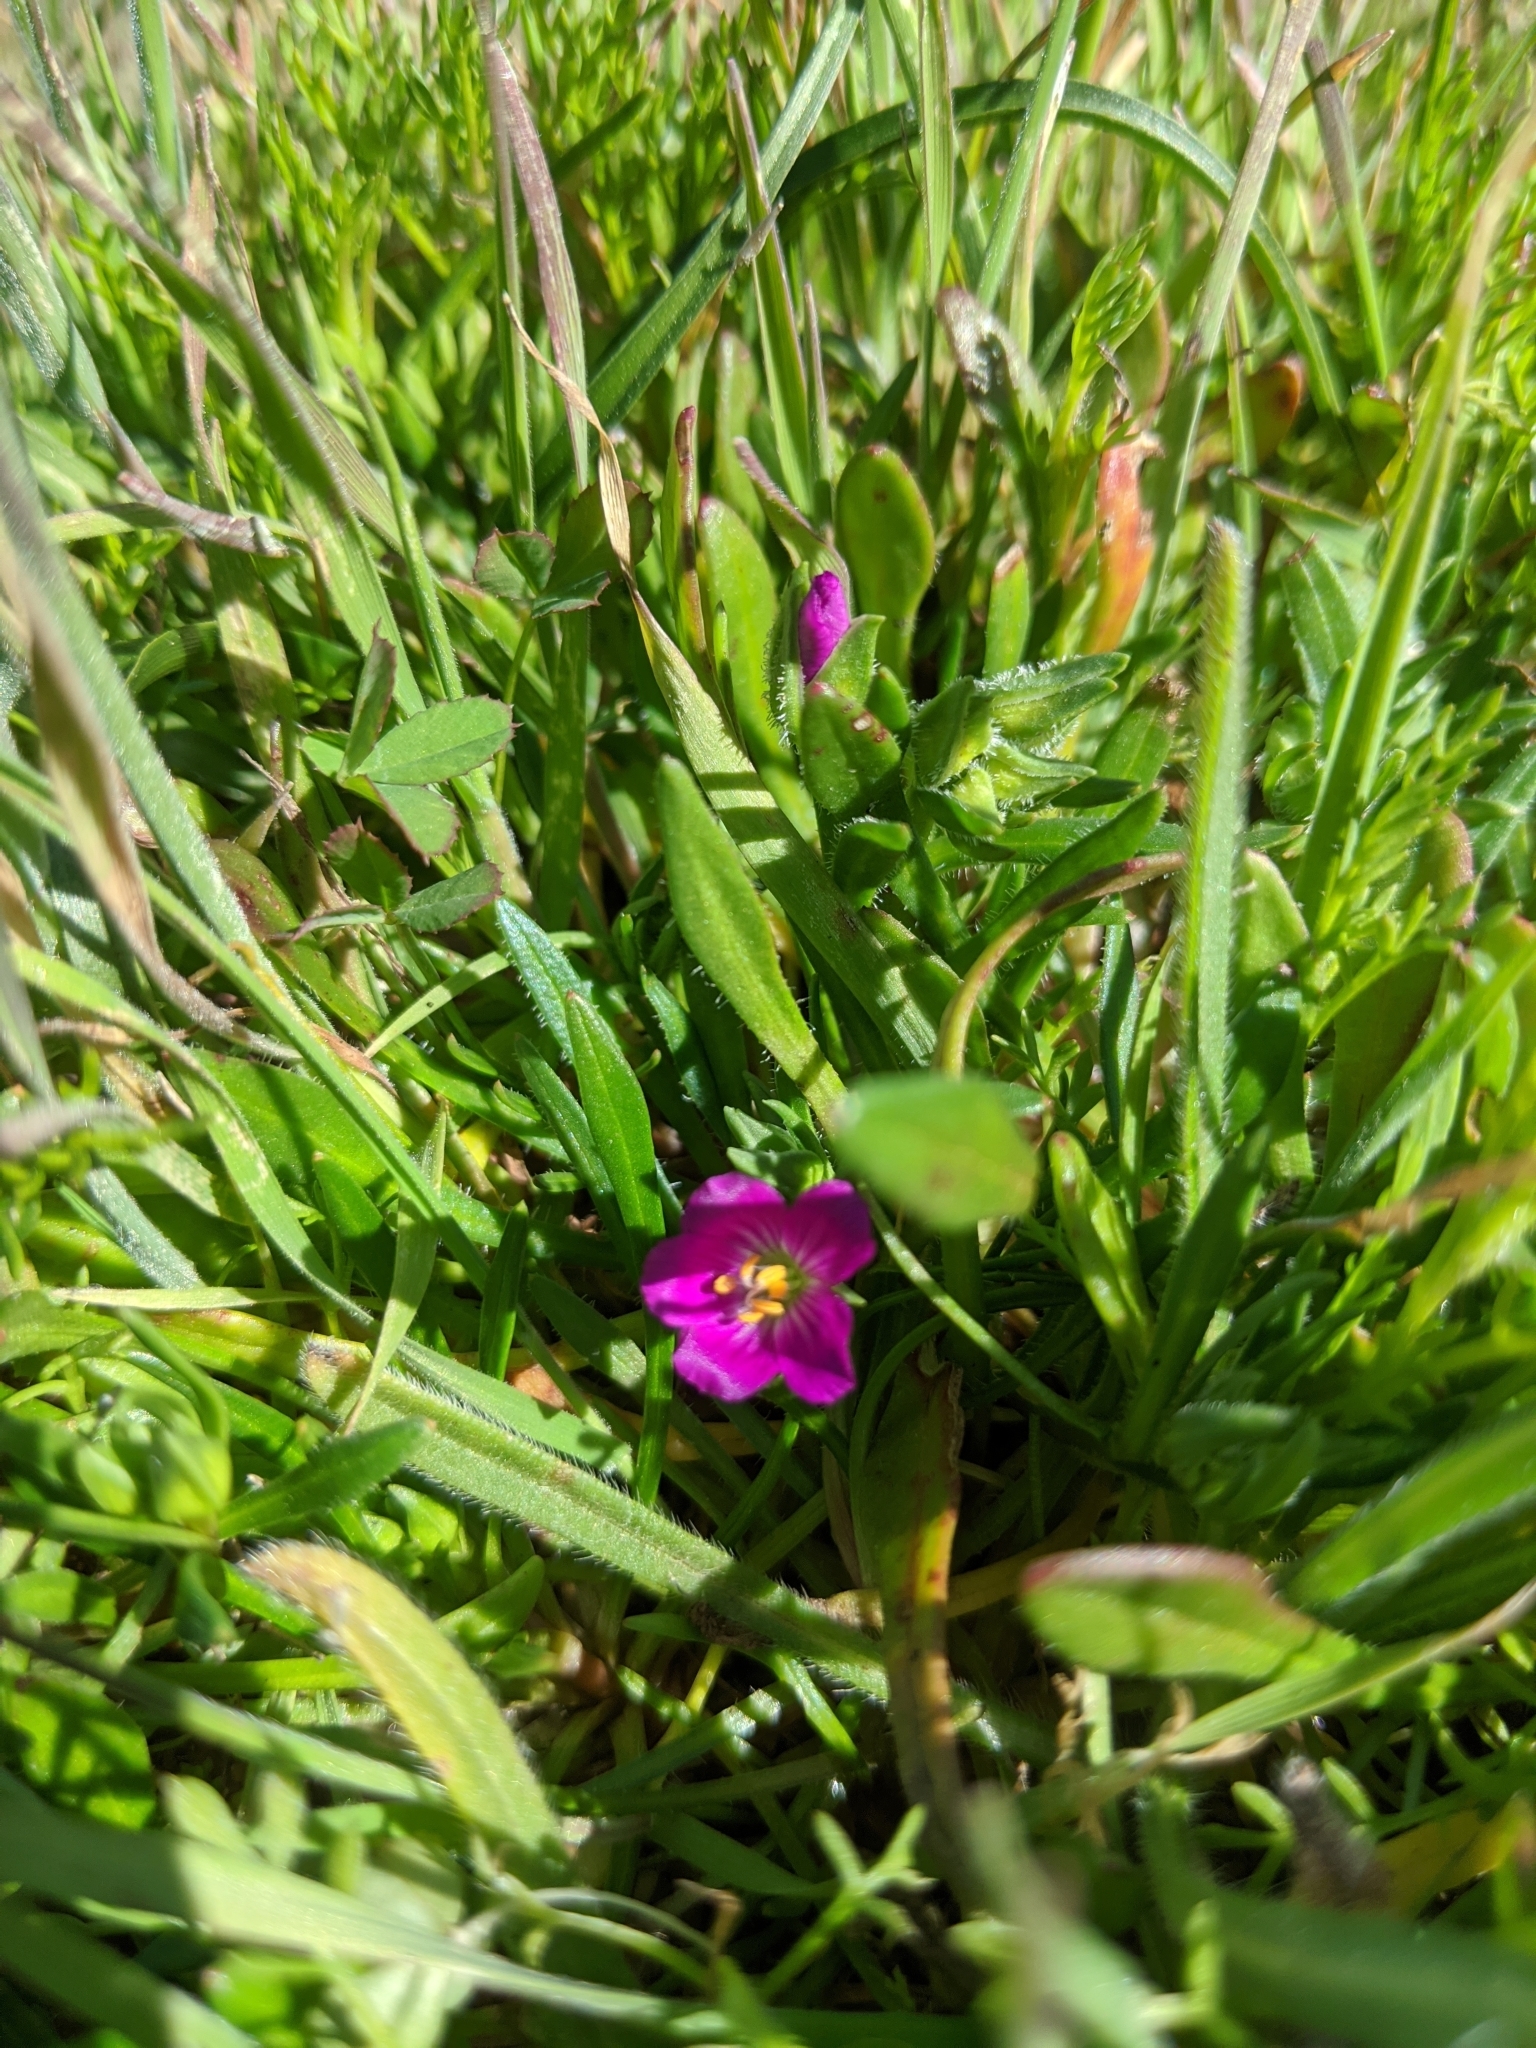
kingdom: Plantae
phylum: Tracheophyta
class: Magnoliopsida
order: Caryophyllales
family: Montiaceae
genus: Calandrinia
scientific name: Calandrinia menziesii
